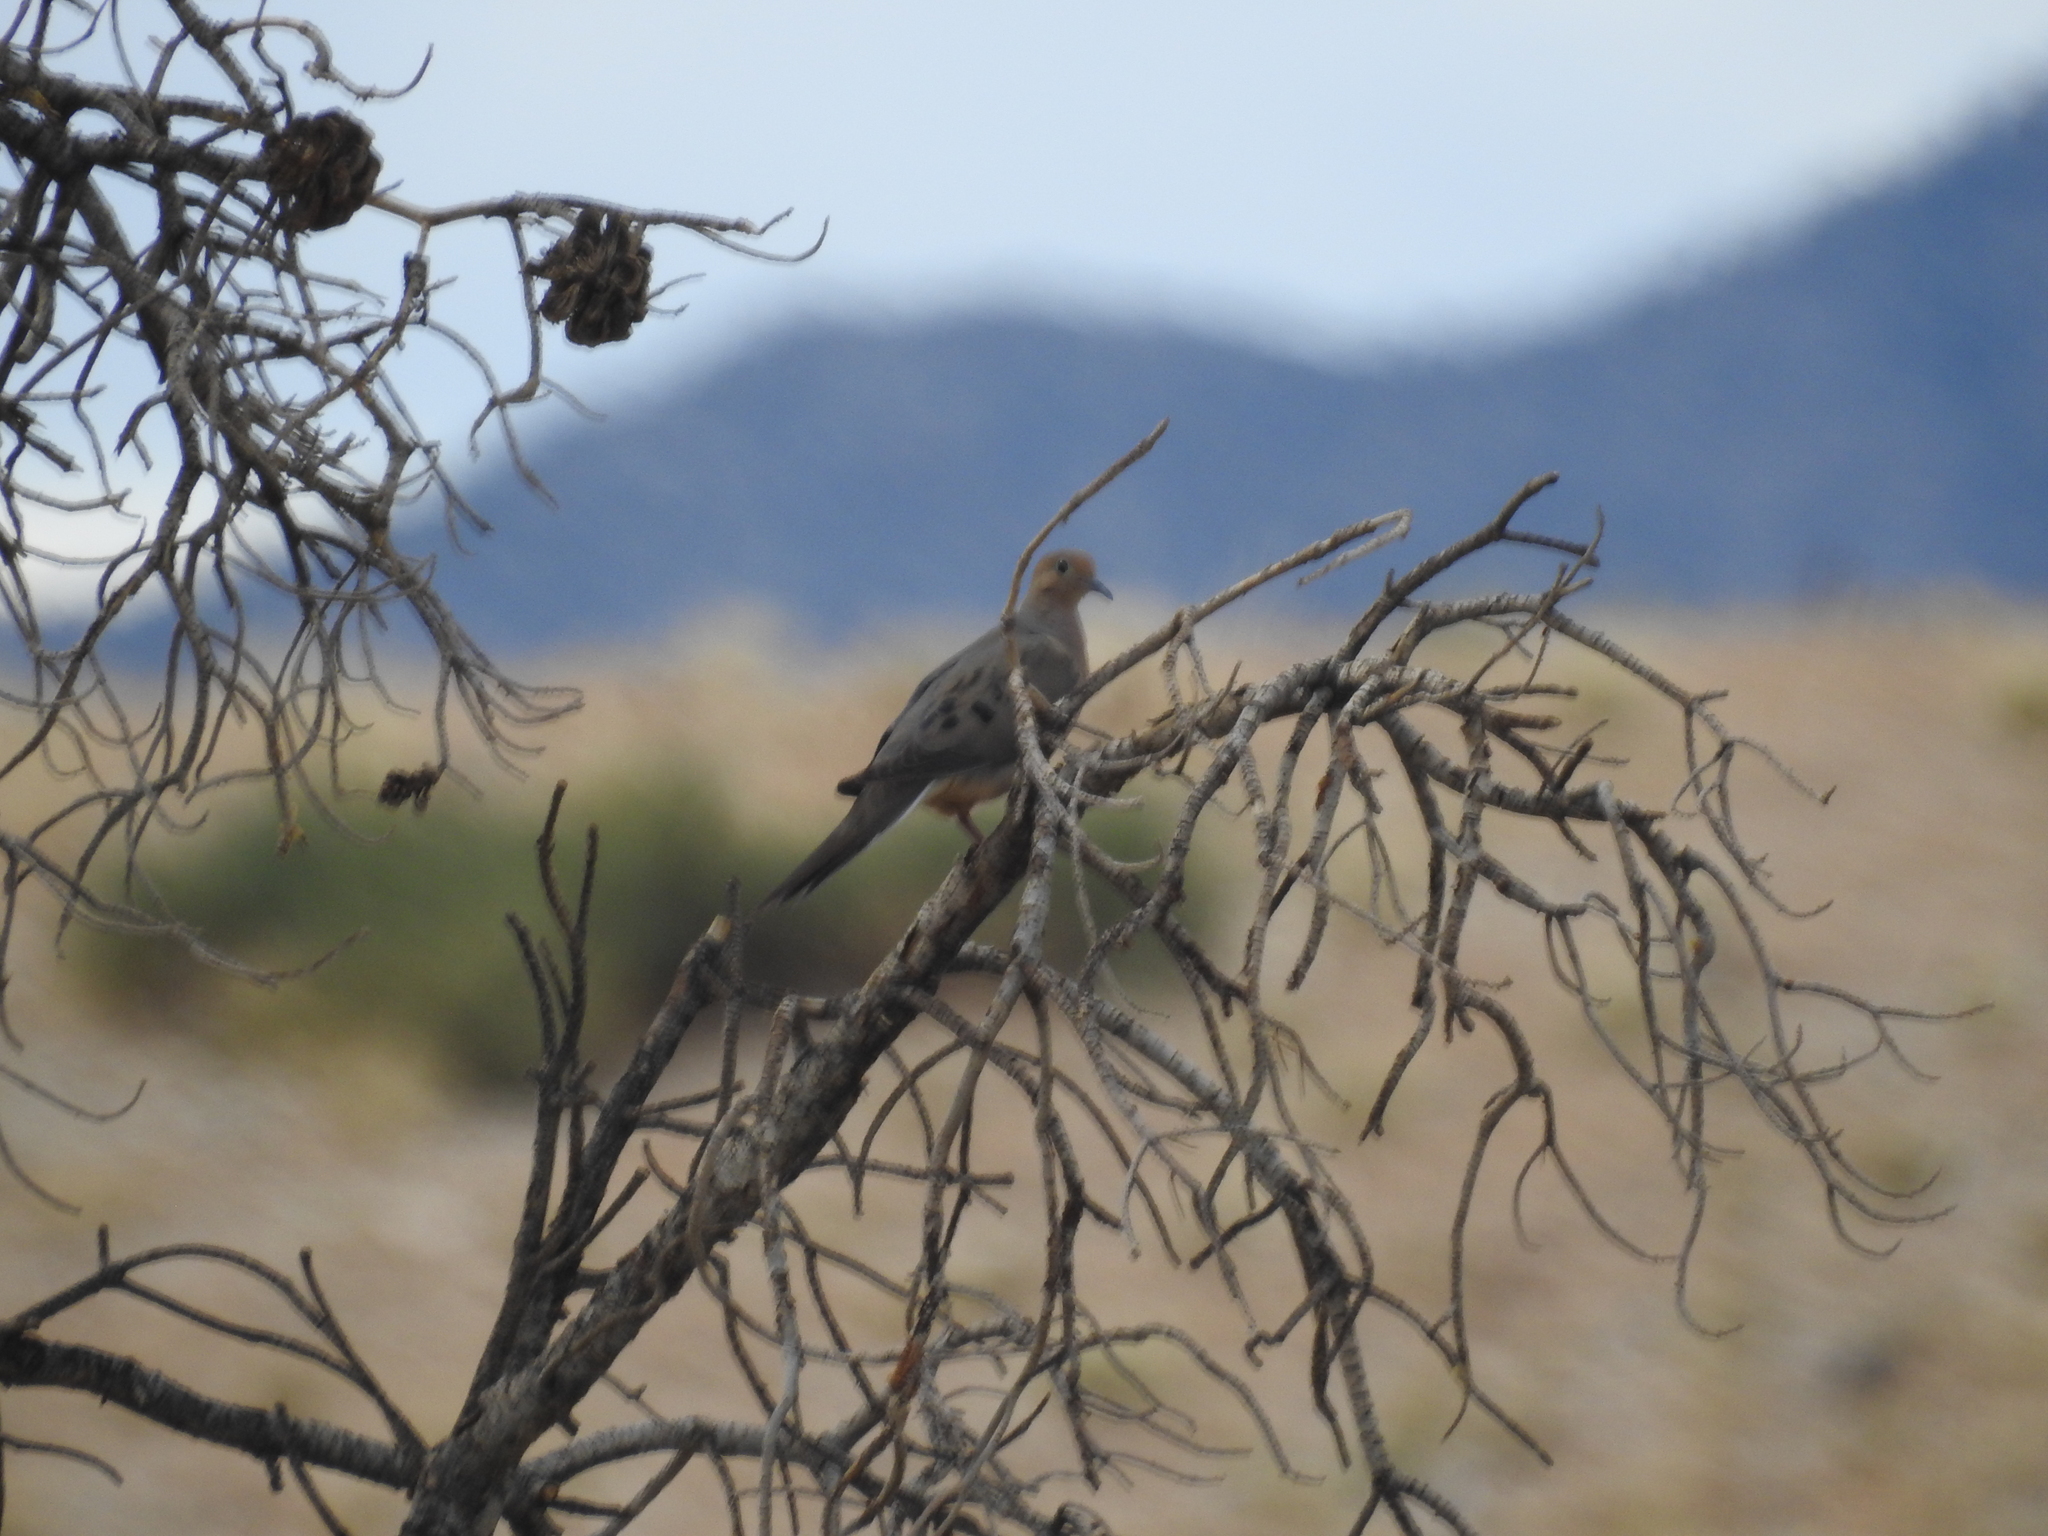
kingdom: Animalia
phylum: Chordata
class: Aves
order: Columbiformes
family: Columbidae
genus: Zenaida
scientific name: Zenaida macroura
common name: Mourning dove
